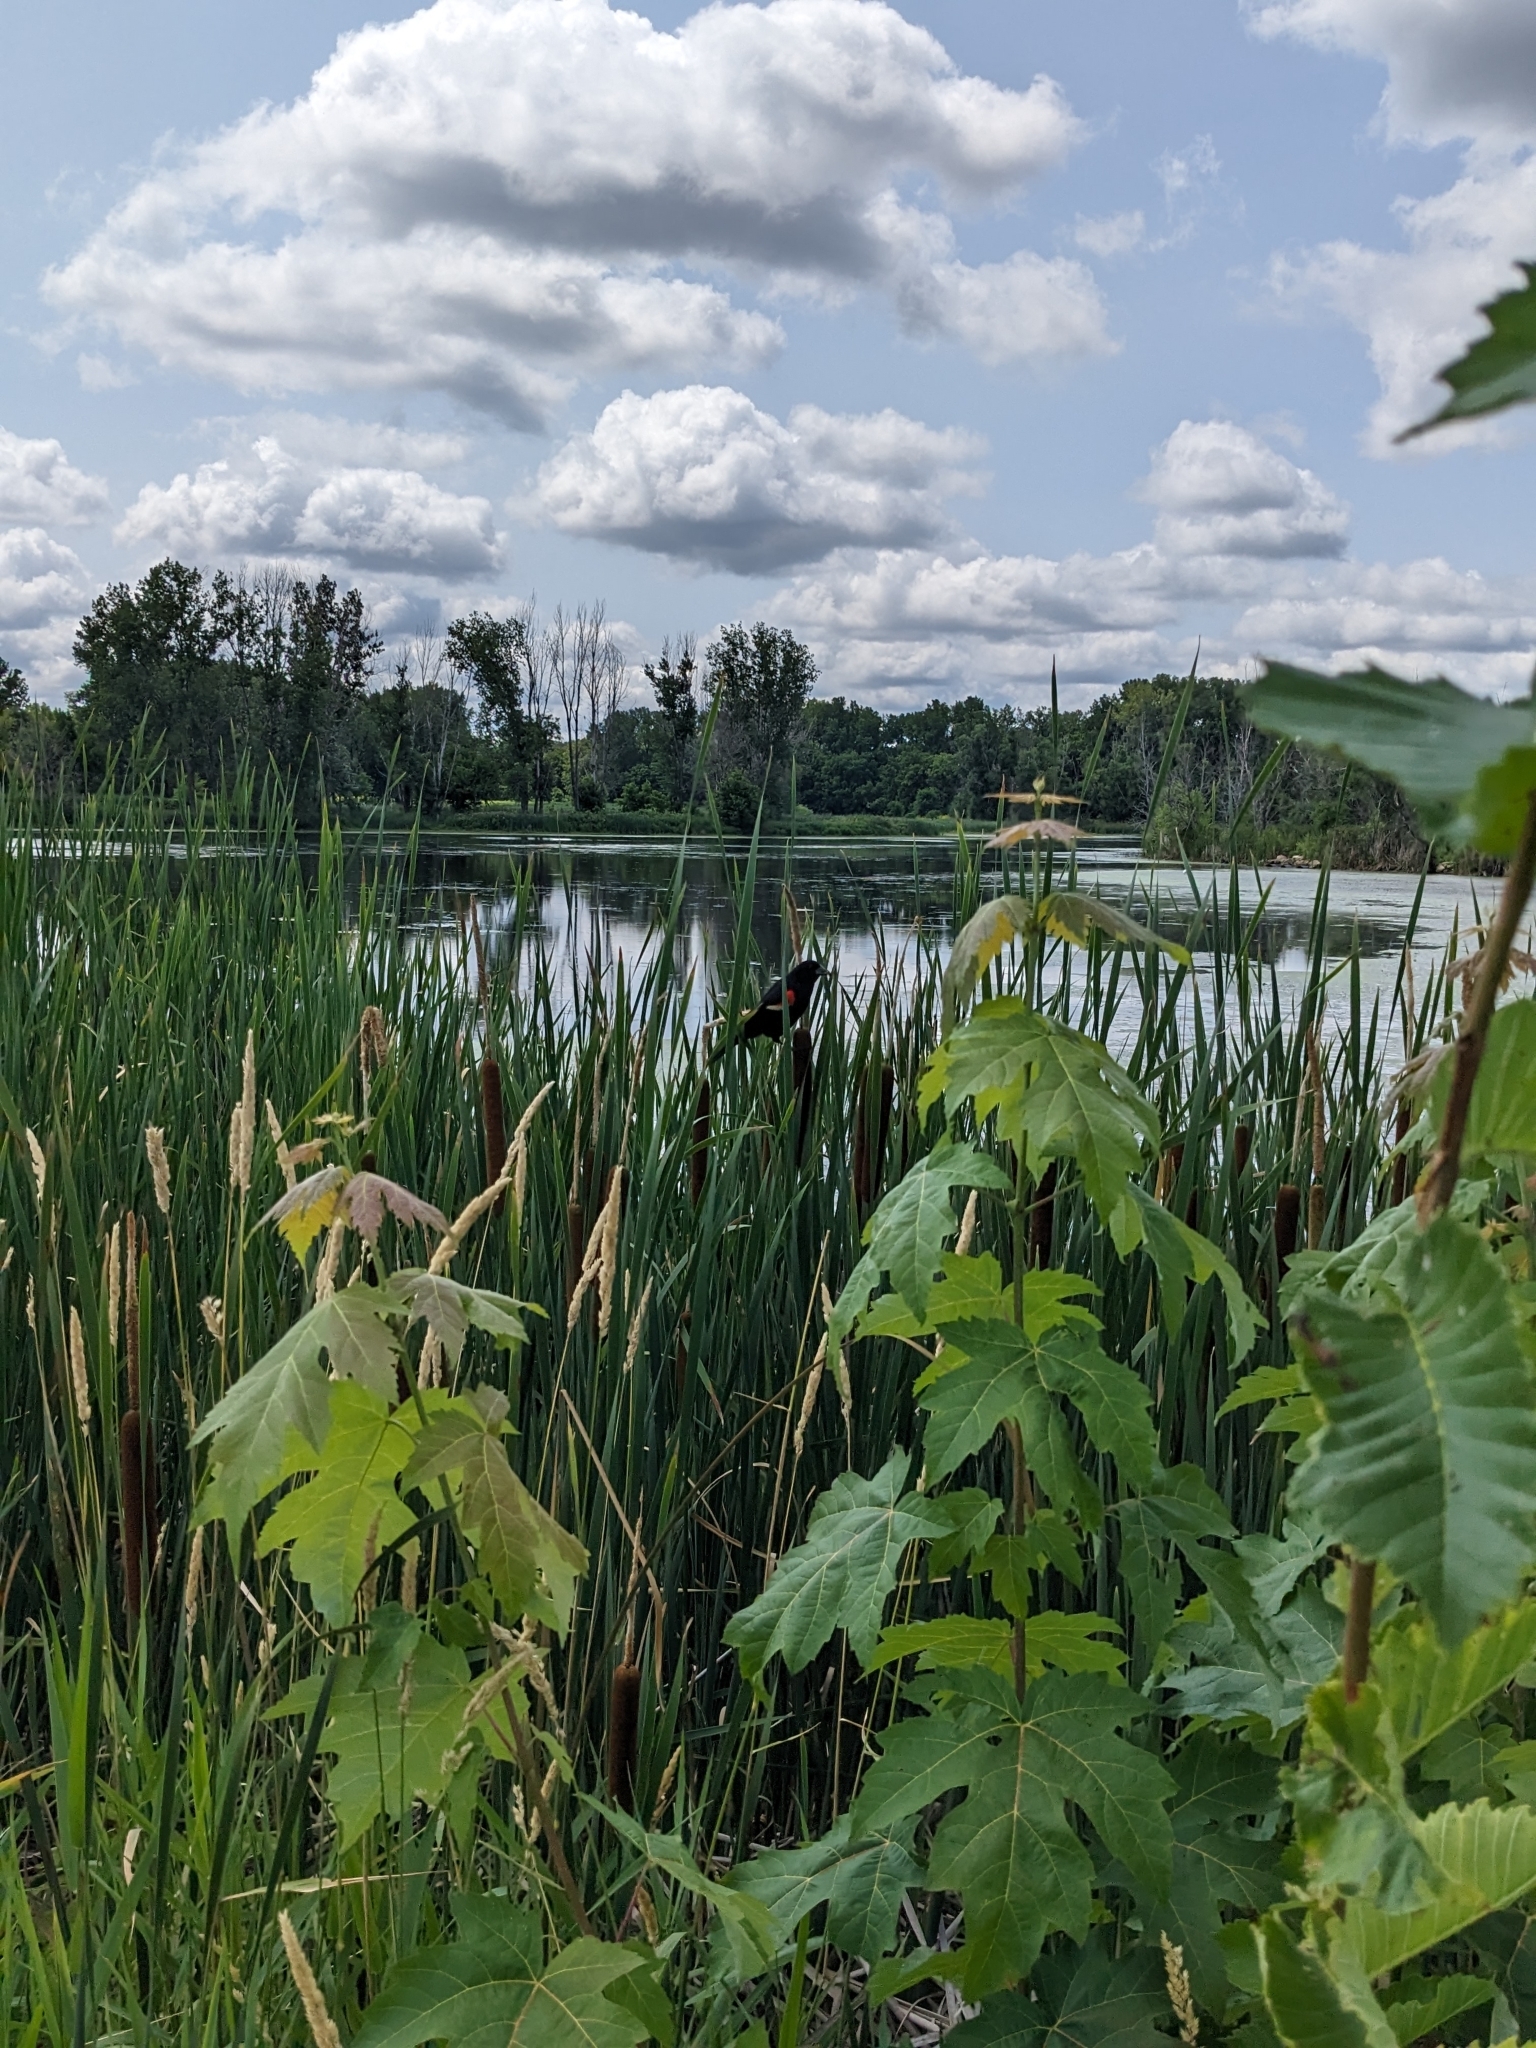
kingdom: Animalia
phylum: Chordata
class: Aves
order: Passeriformes
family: Icteridae
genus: Agelaius
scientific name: Agelaius phoeniceus
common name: Red-winged blackbird
